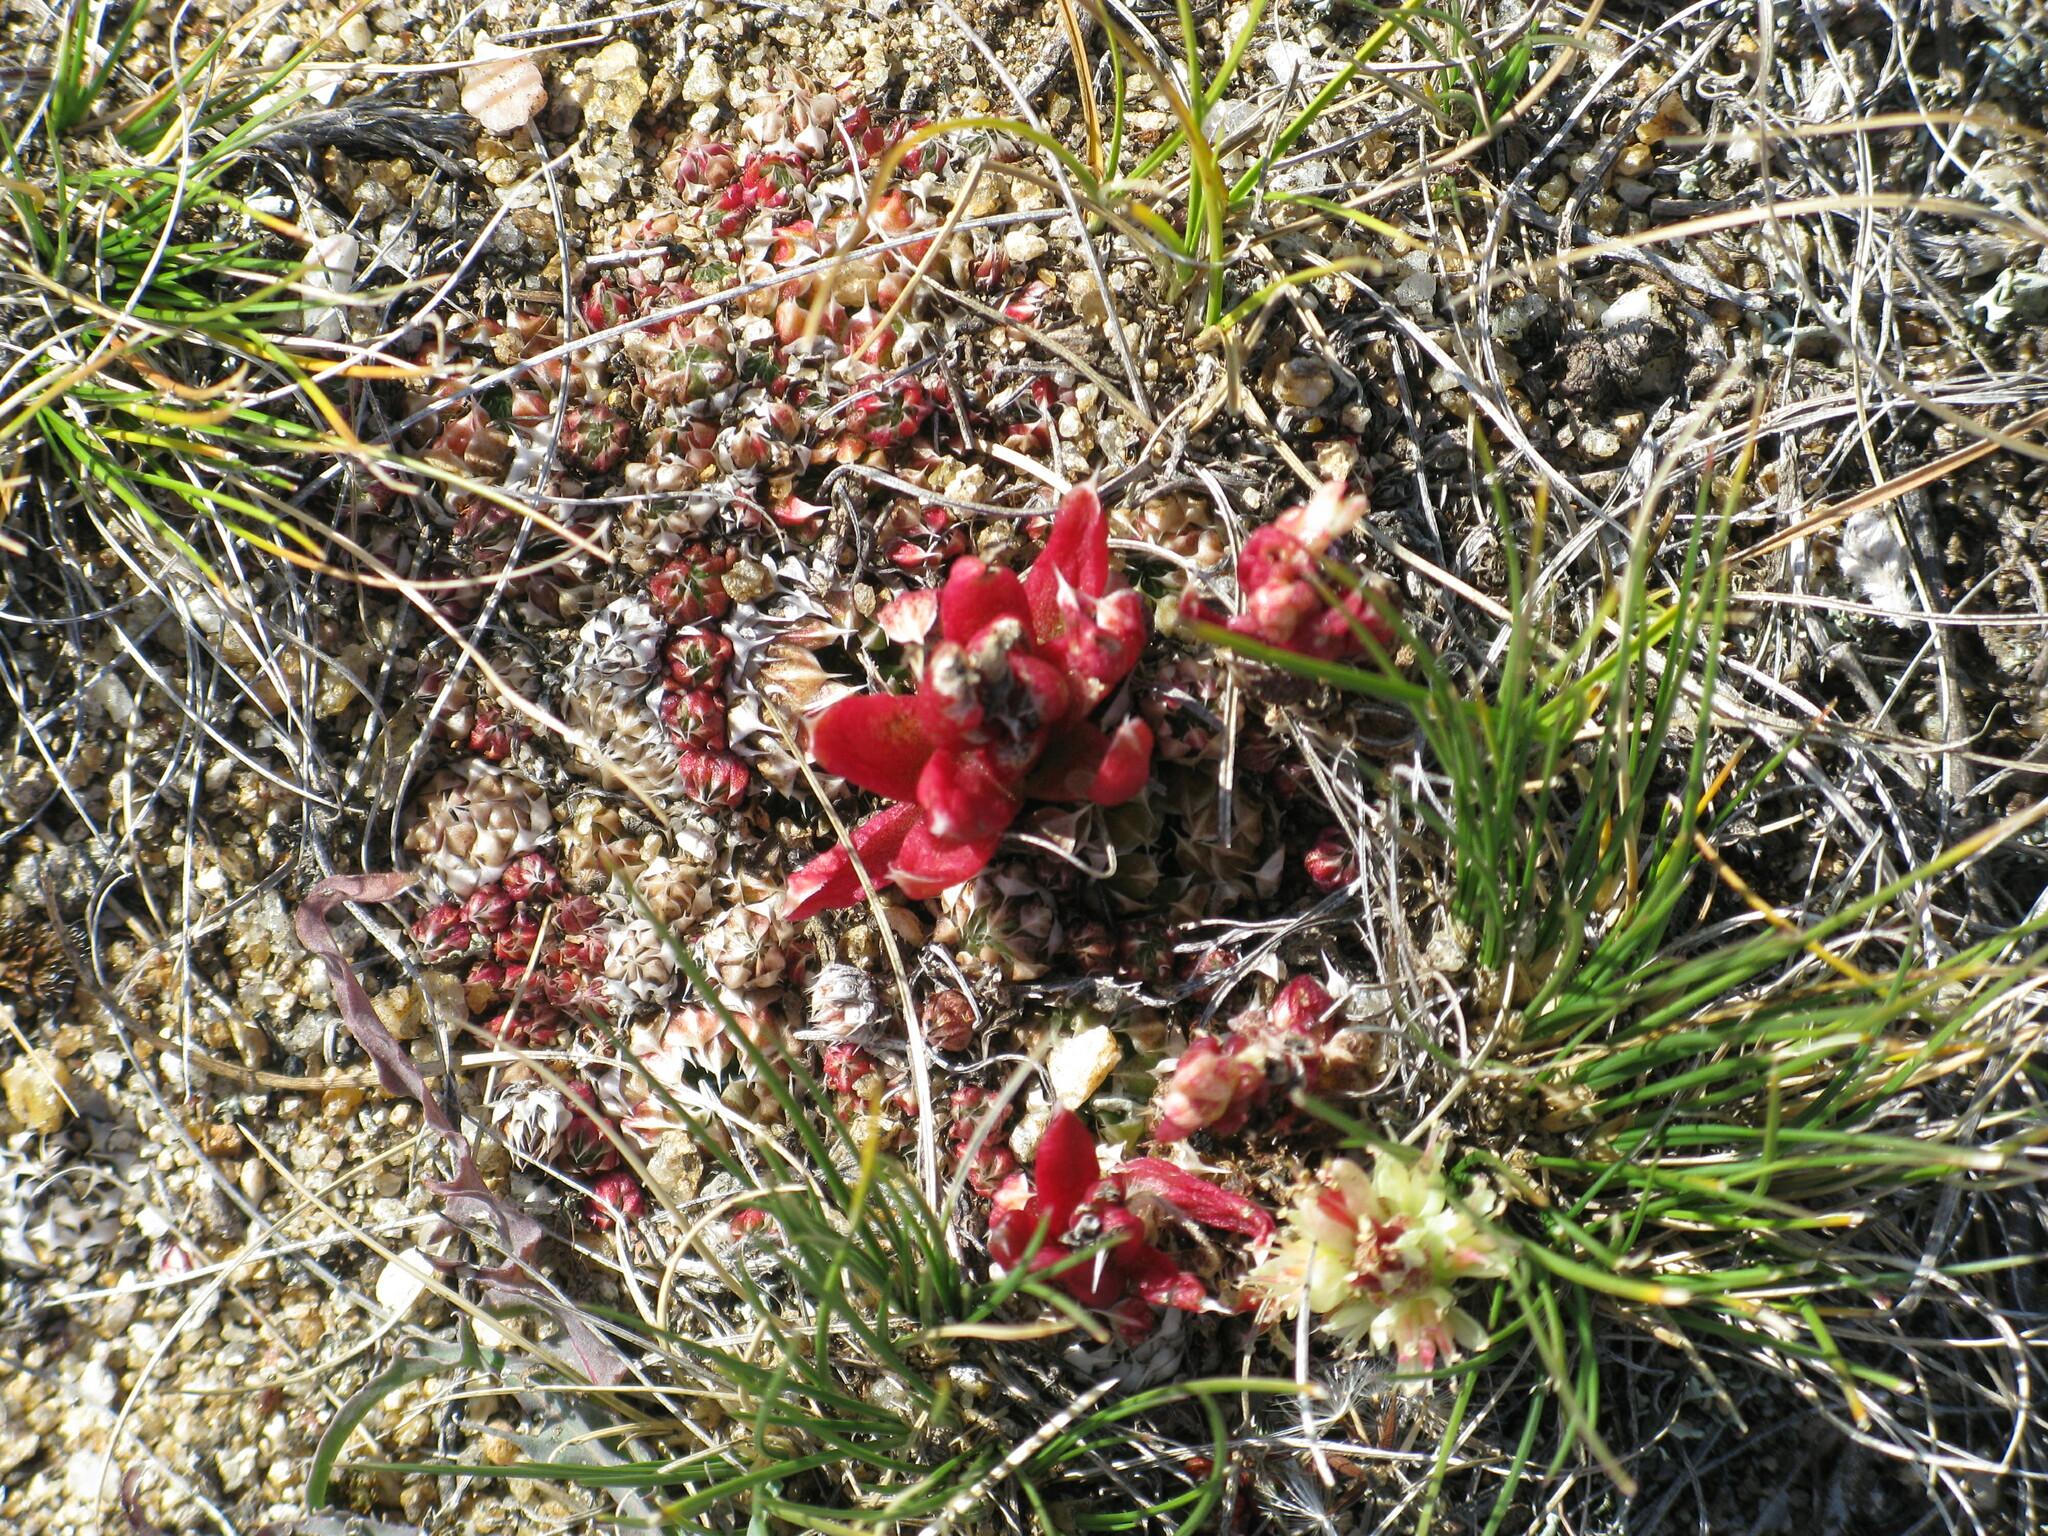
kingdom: Plantae
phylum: Tracheophyta
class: Magnoliopsida
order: Saxifragales
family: Crassulaceae
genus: Orostachys
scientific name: Orostachys spinosa
